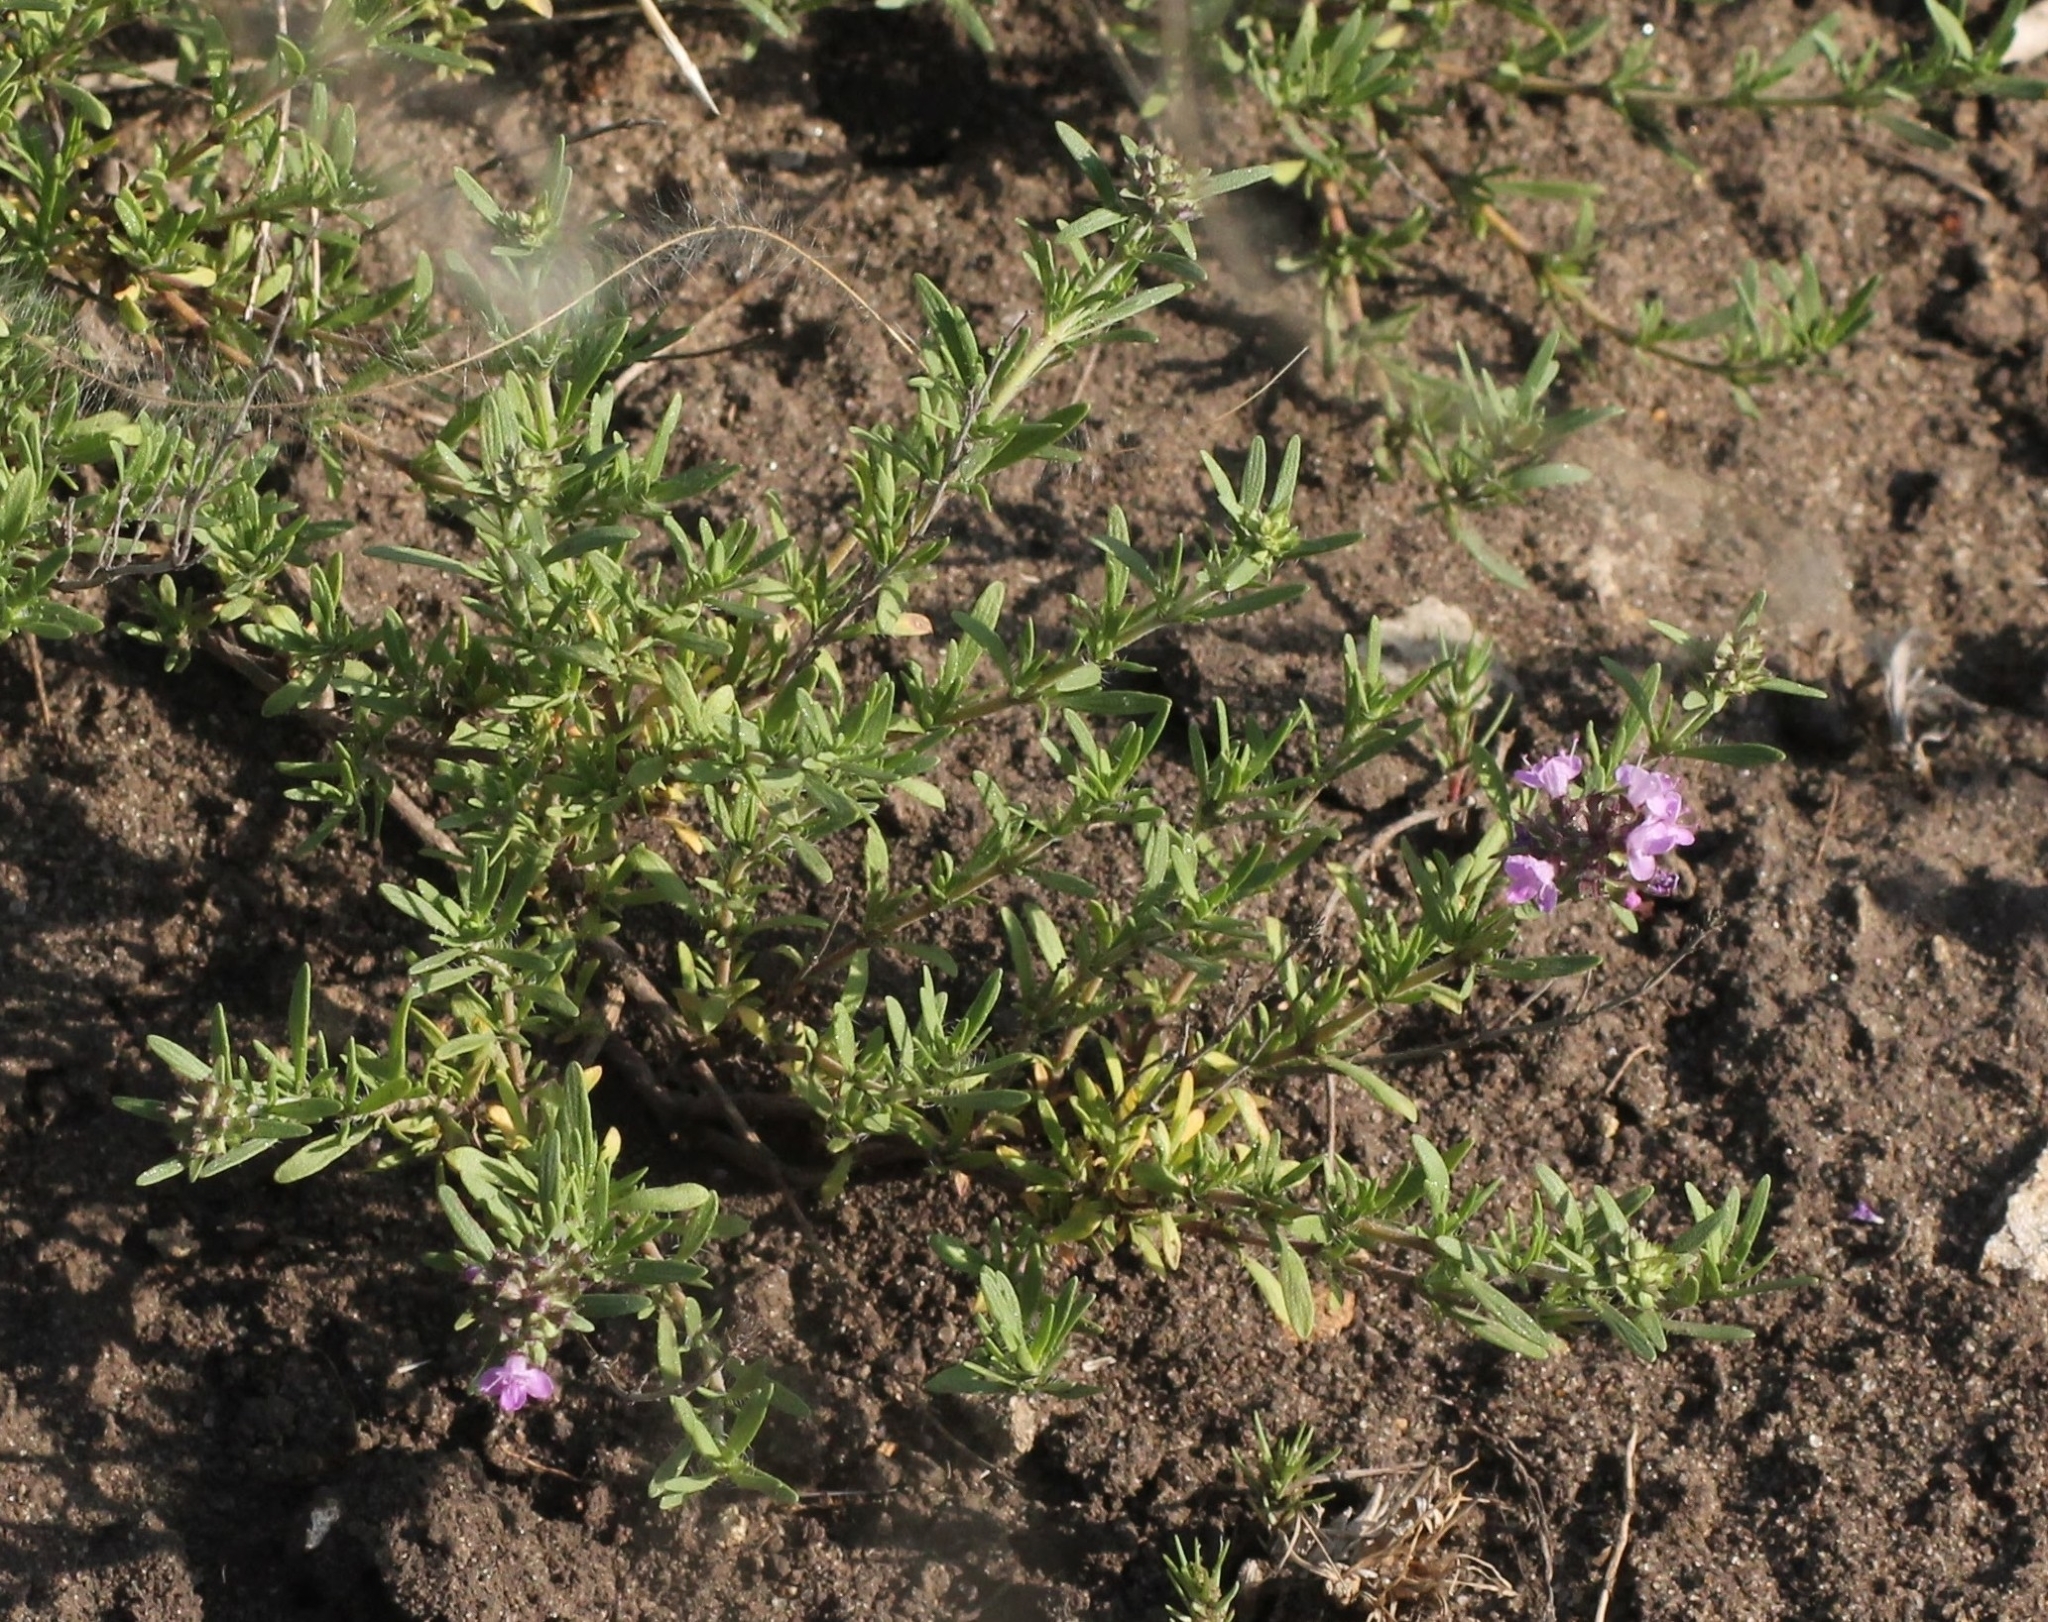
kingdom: Plantae
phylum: Tracheophyta
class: Magnoliopsida
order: Lamiales
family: Lamiaceae
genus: Thymus
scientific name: Thymus pallasianus
